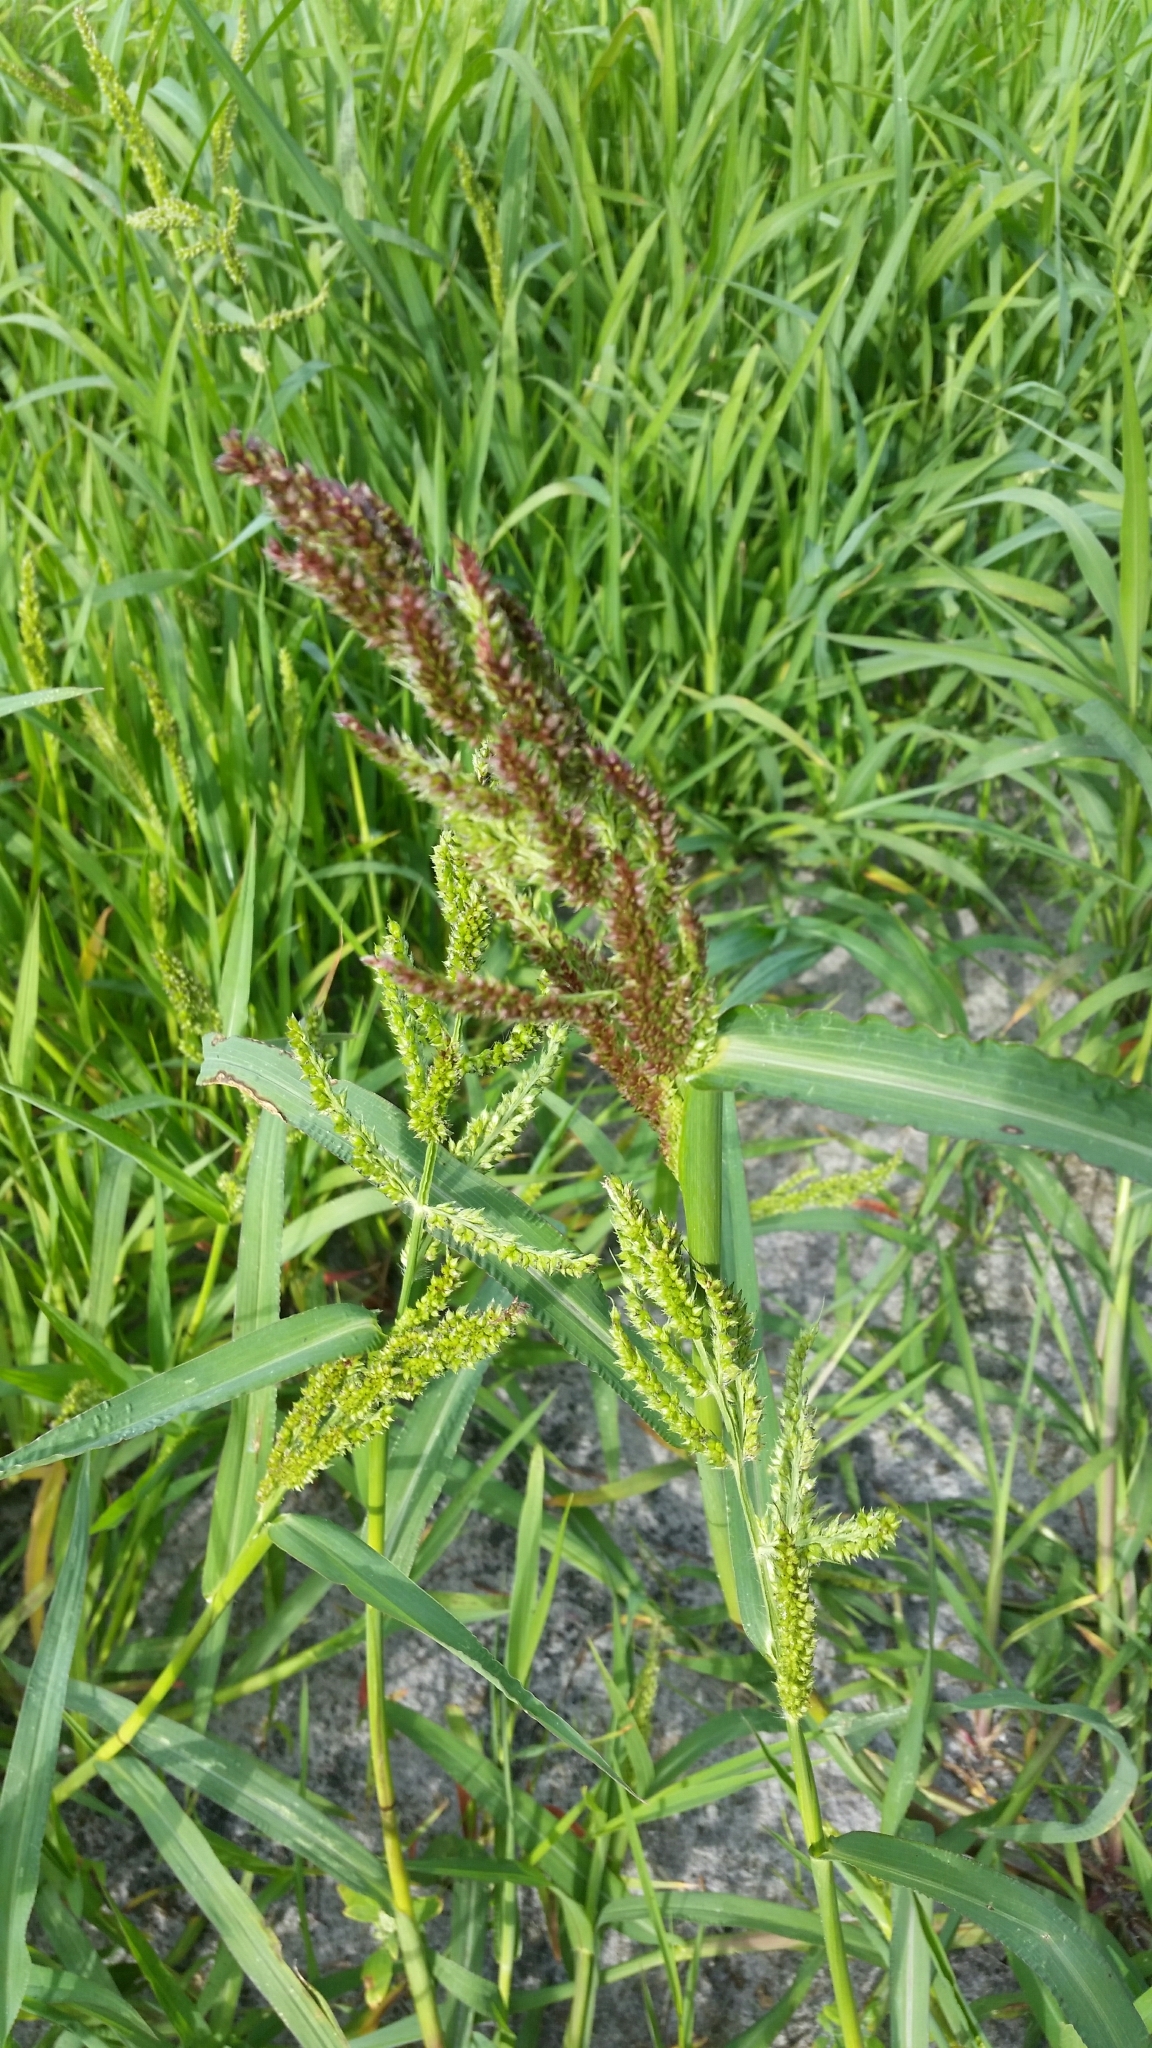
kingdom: Plantae
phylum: Tracheophyta
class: Liliopsida
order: Poales
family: Poaceae
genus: Echinochloa
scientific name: Echinochloa crus-galli
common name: Cockspur
